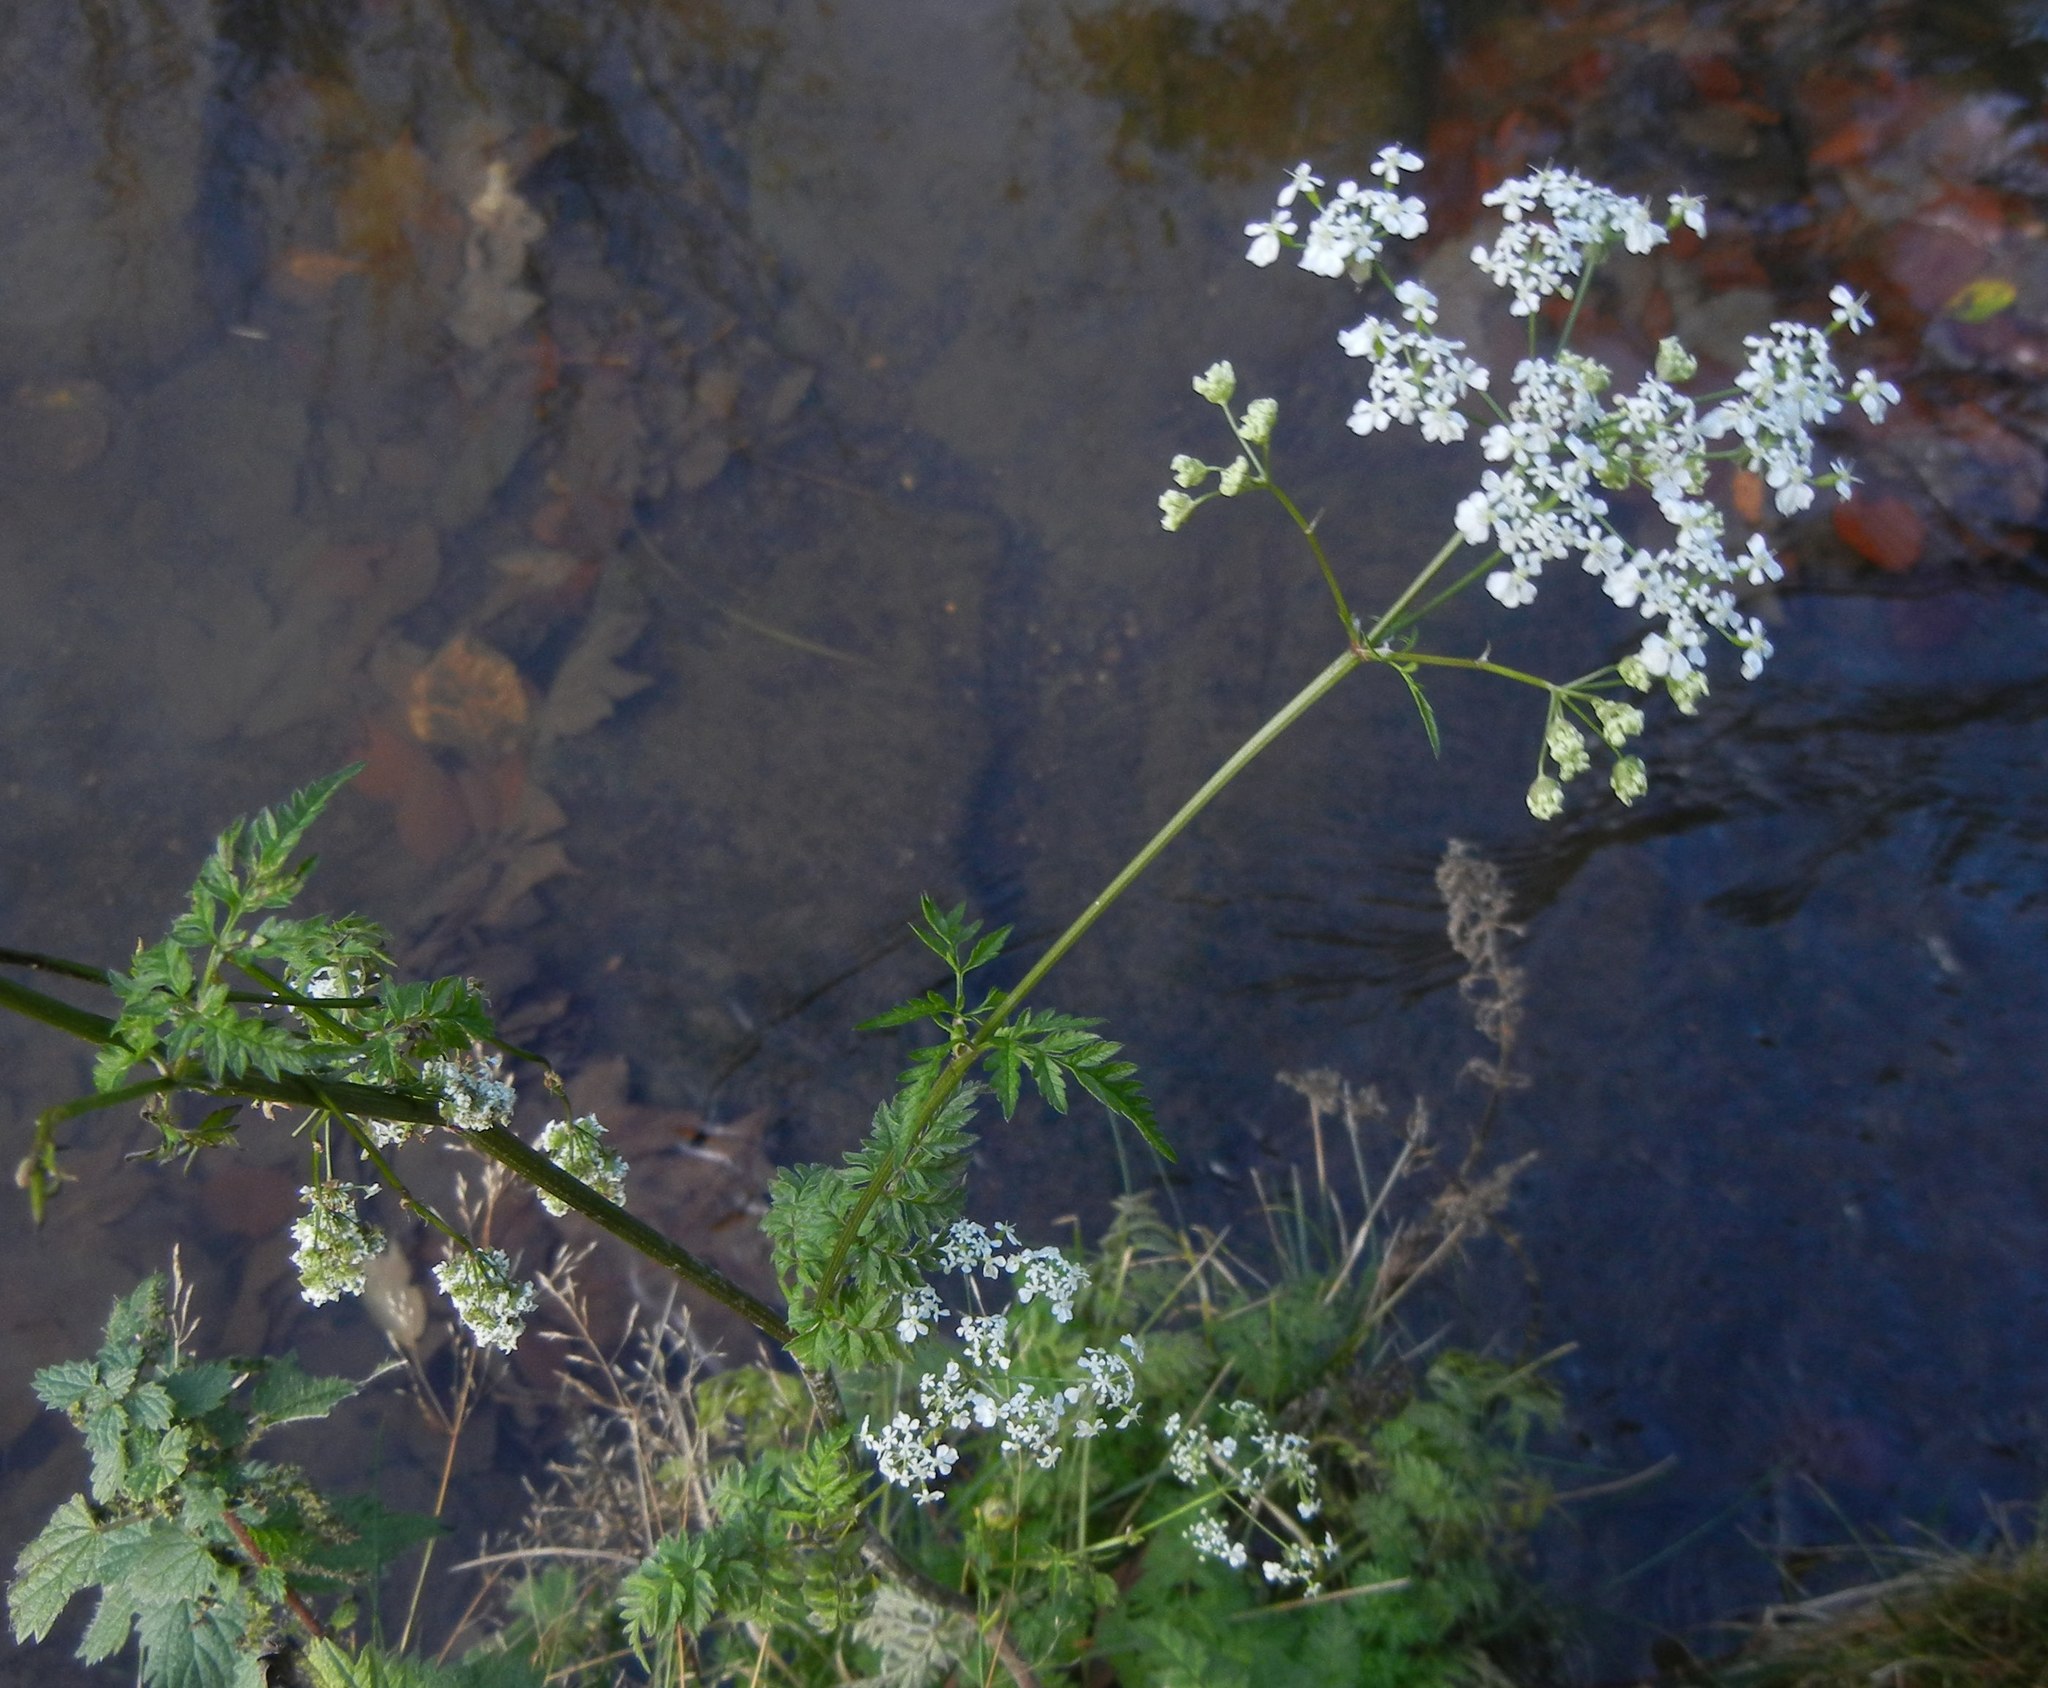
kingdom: Plantae
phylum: Tracheophyta
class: Magnoliopsida
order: Apiales
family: Apiaceae
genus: Anthriscus
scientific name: Anthriscus sylvestris
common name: Cow parsley
